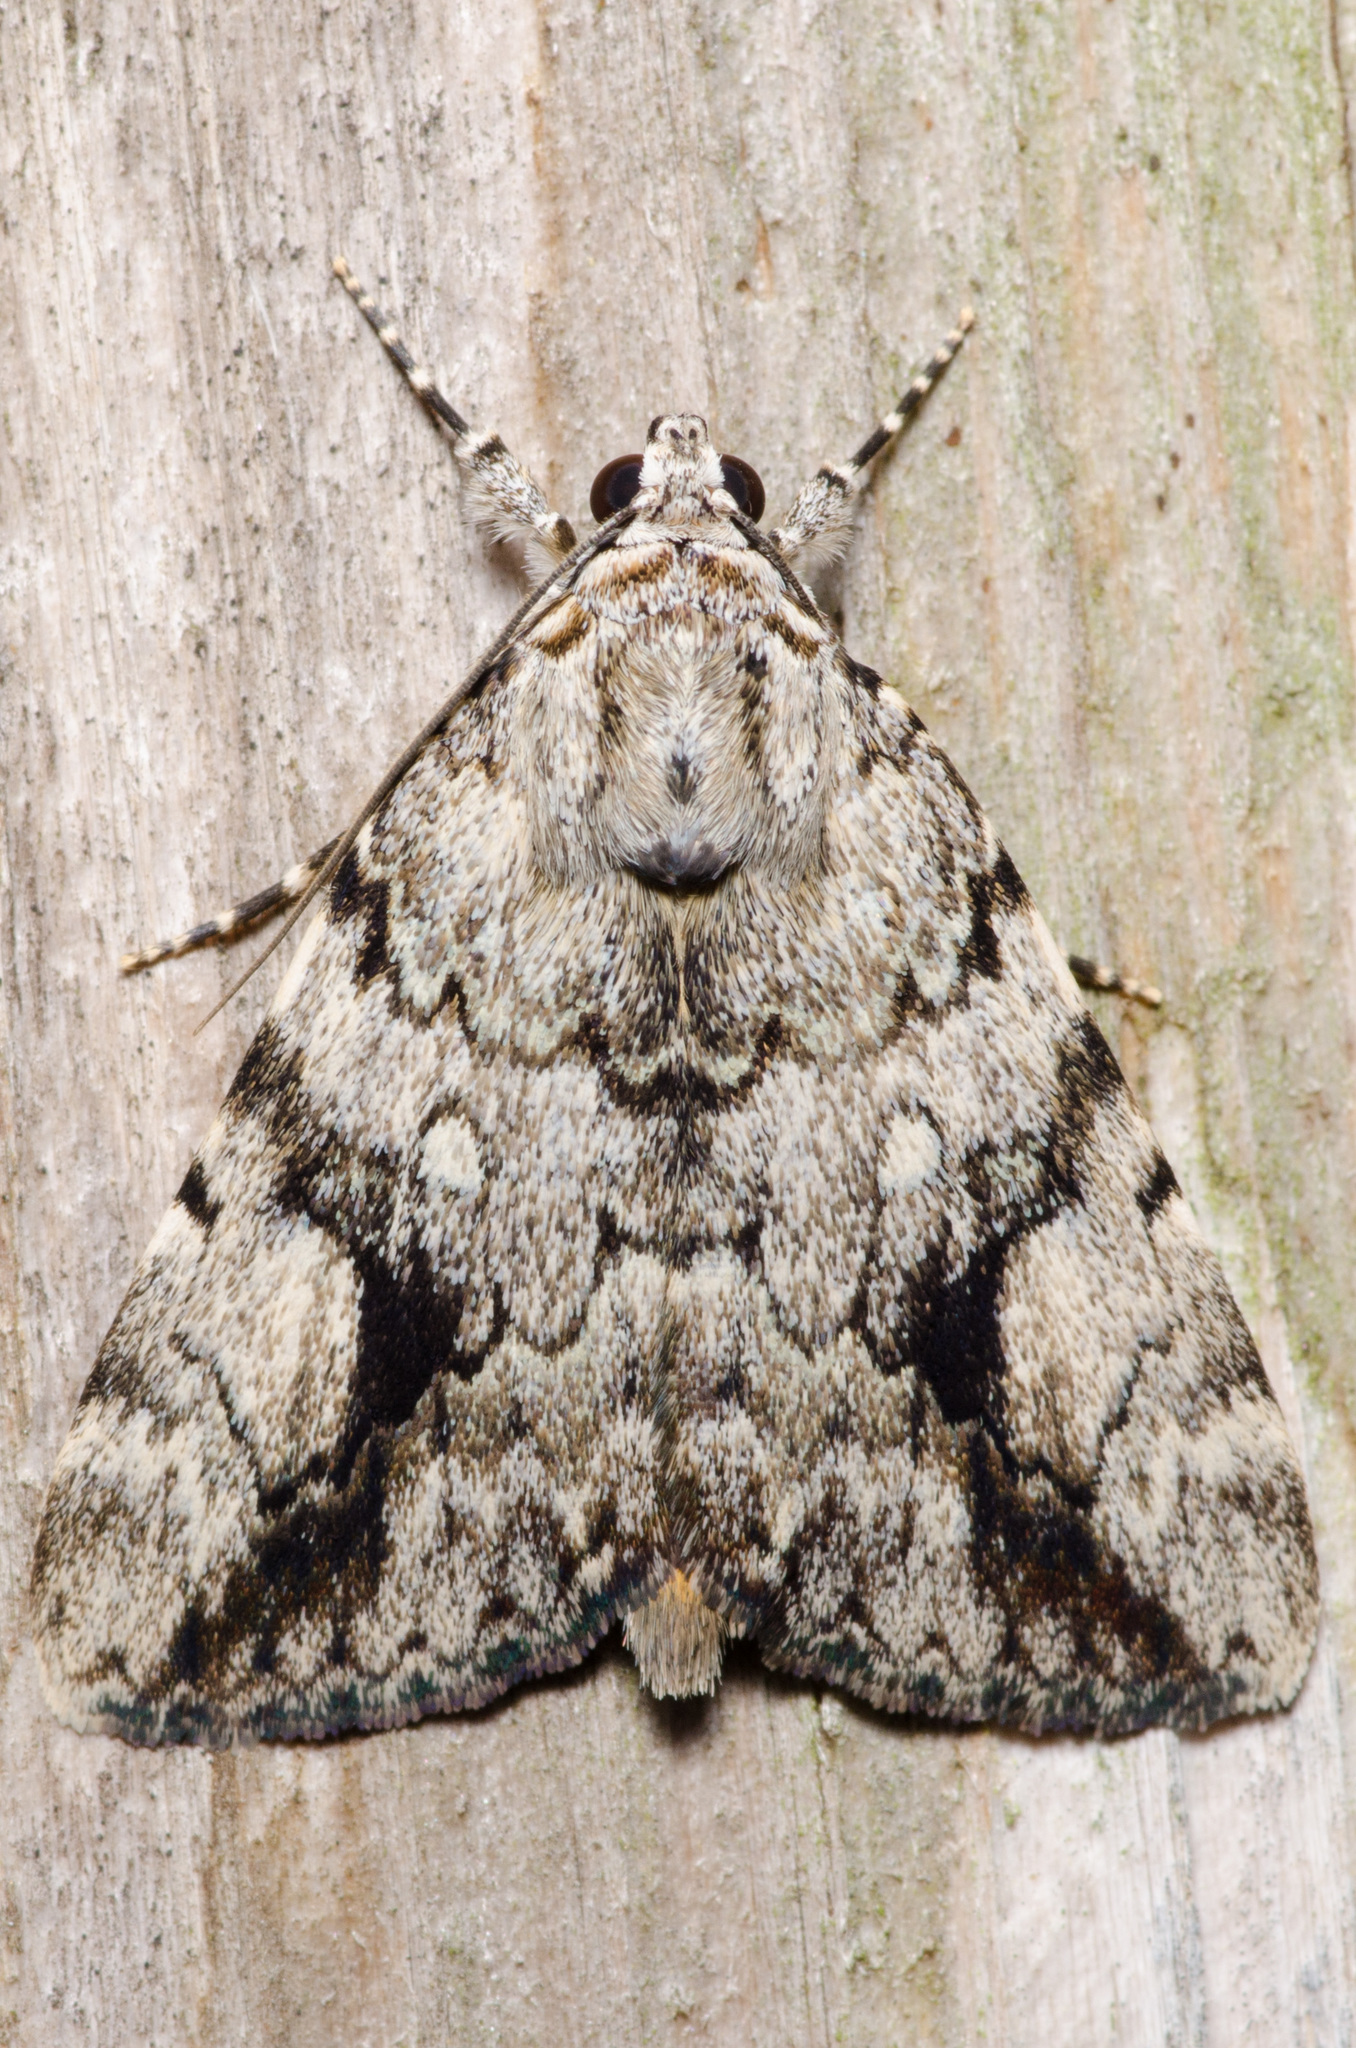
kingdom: Animalia
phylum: Arthropoda
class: Insecta
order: Lepidoptera
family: Erebidae
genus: Catocala
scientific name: Catocala amica
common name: Girlfriend underwing
